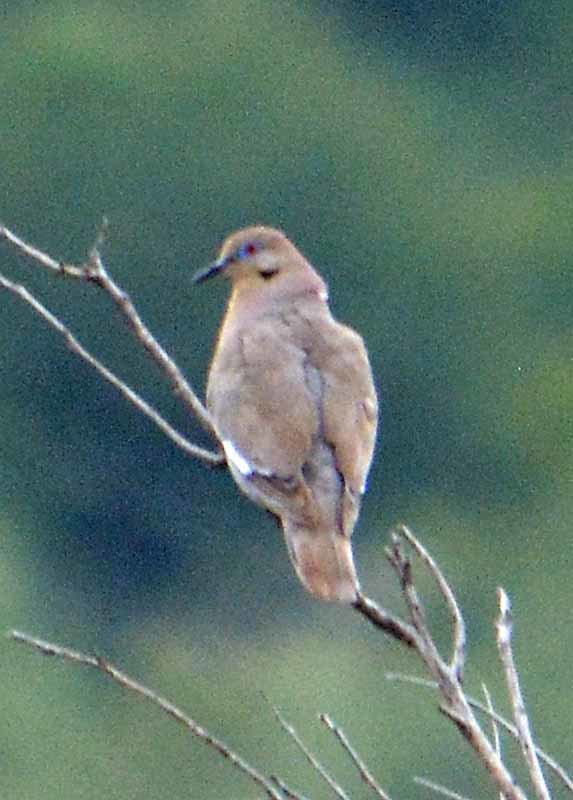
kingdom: Animalia
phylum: Chordata
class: Aves
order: Columbiformes
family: Columbidae
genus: Zenaida
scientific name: Zenaida asiatica
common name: White-winged dove
